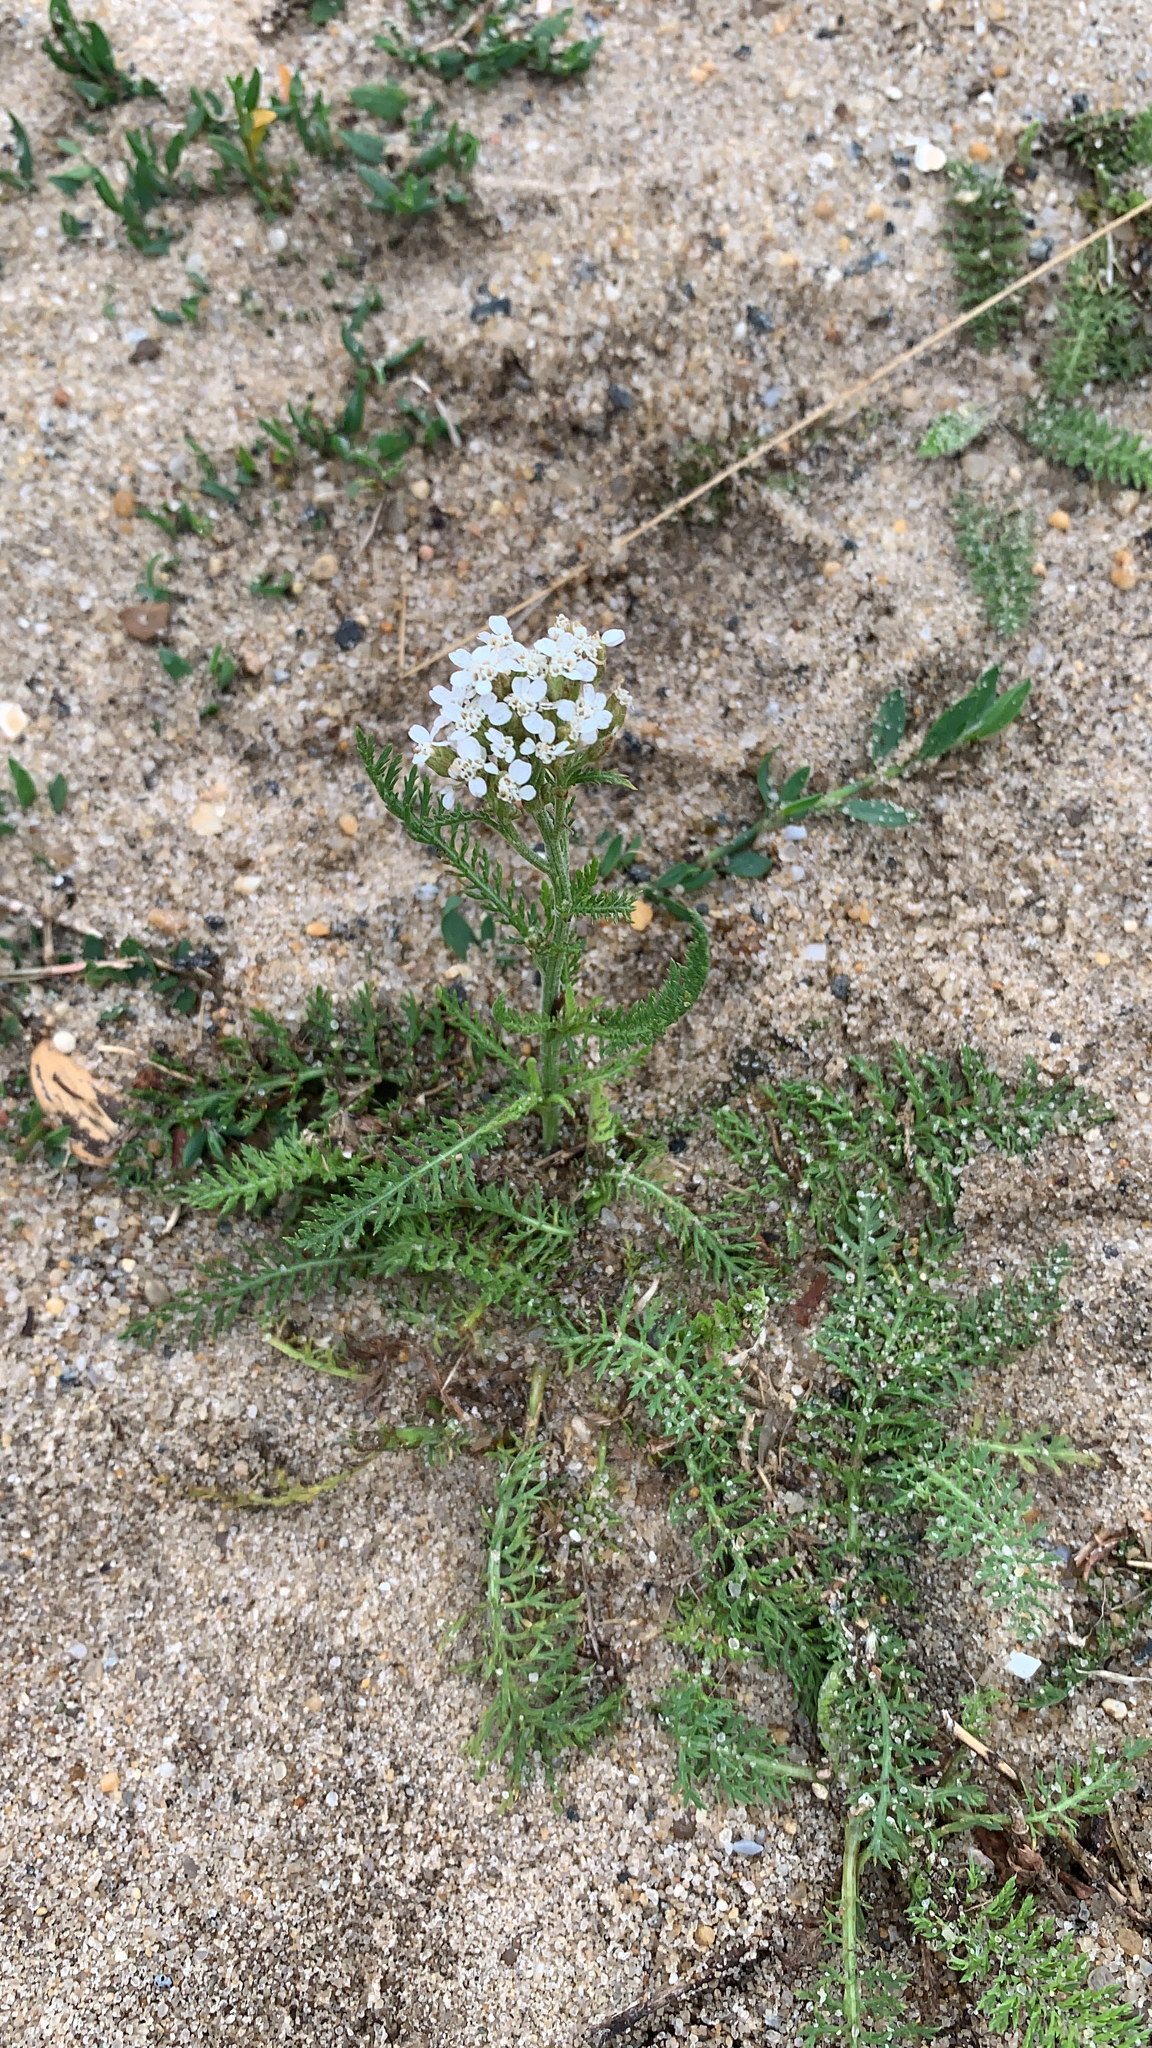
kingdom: Plantae
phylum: Tracheophyta
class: Magnoliopsida
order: Asterales
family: Asteraceae
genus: Achillea
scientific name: Achillea millefolium
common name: Yarrow
